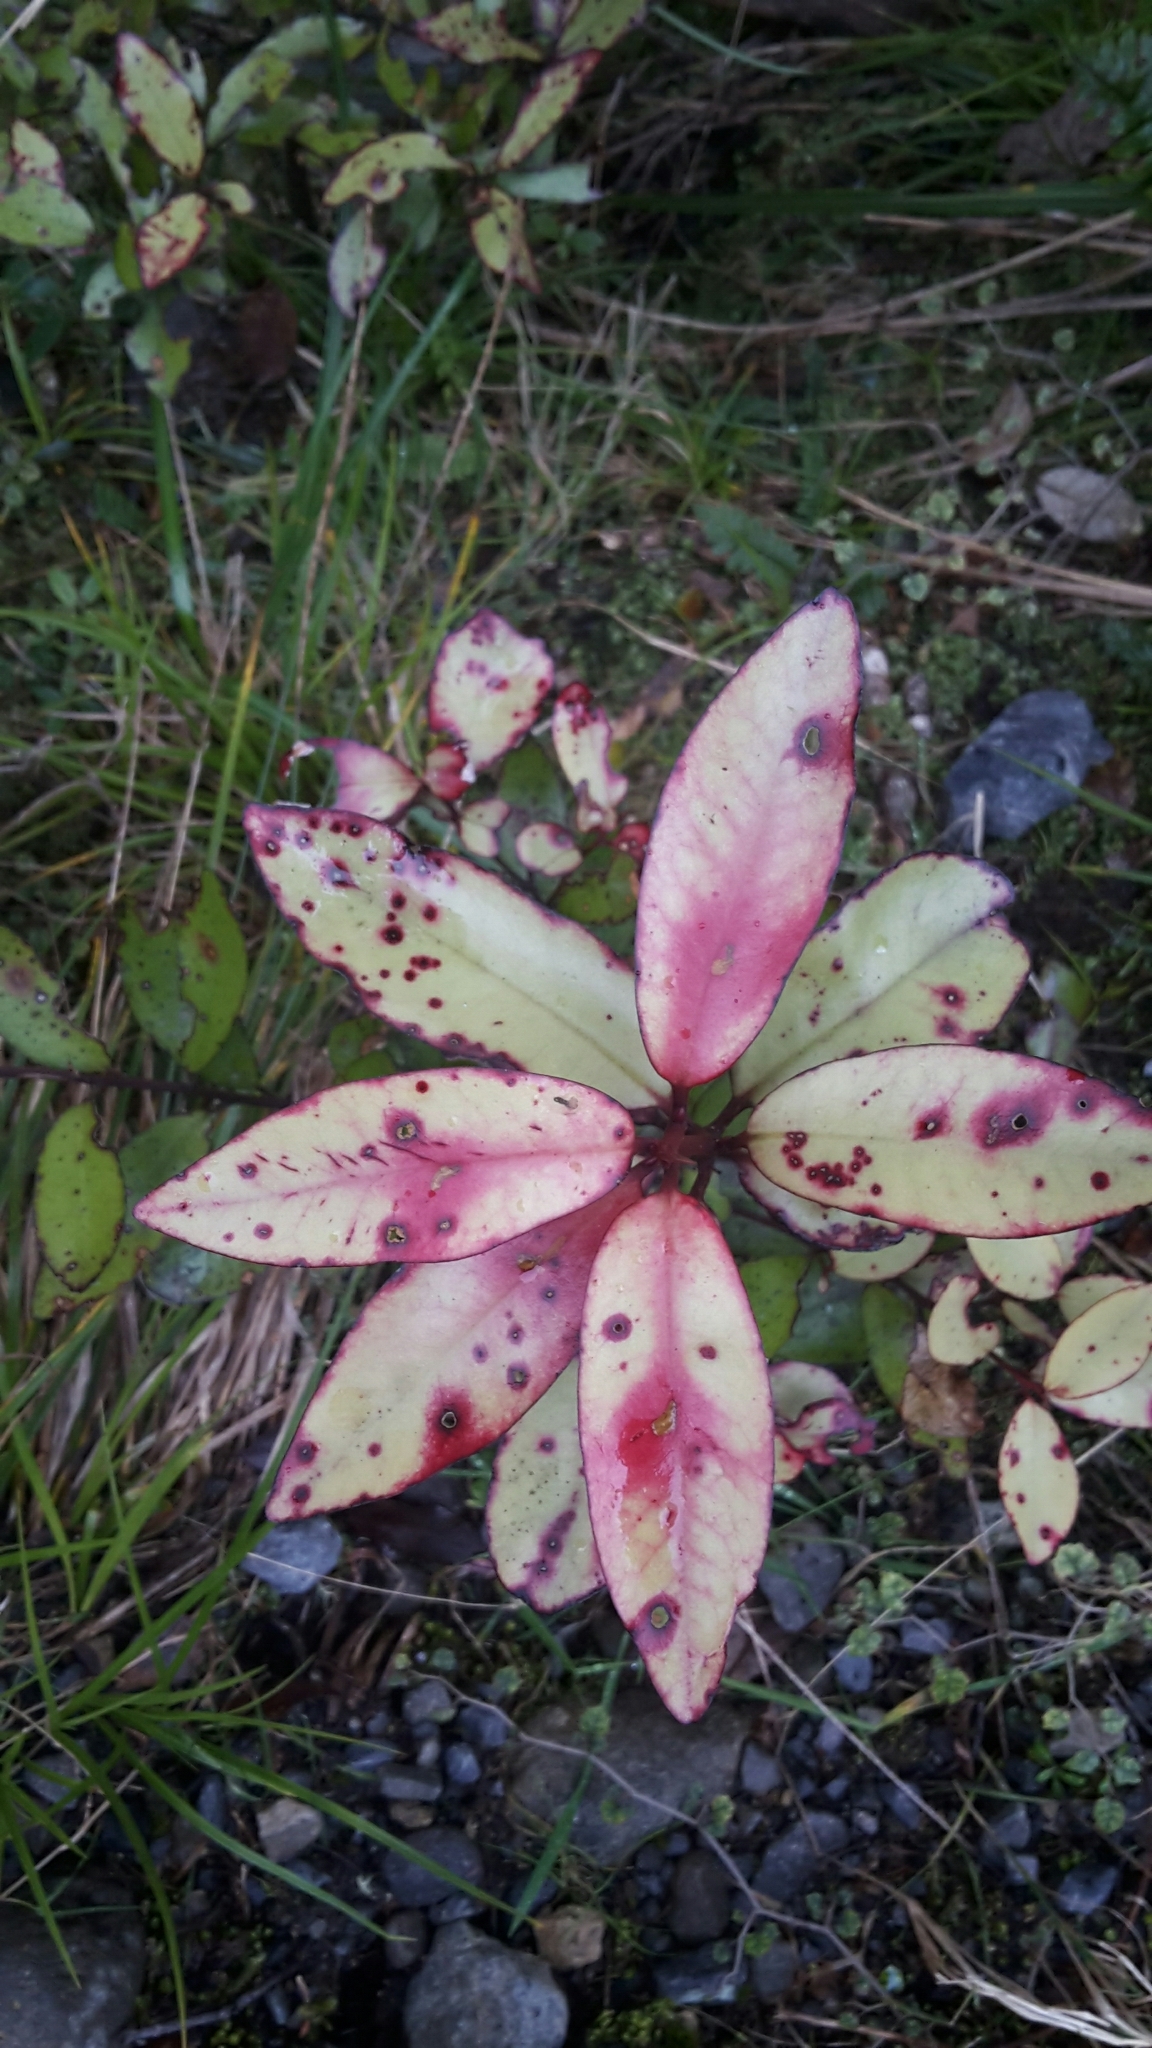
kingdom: Plantae
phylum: Tracheophyta
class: Magnoliopsida
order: Canellales
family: Winteraceae
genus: Pseudowintera
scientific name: Pseudowintera colorata
